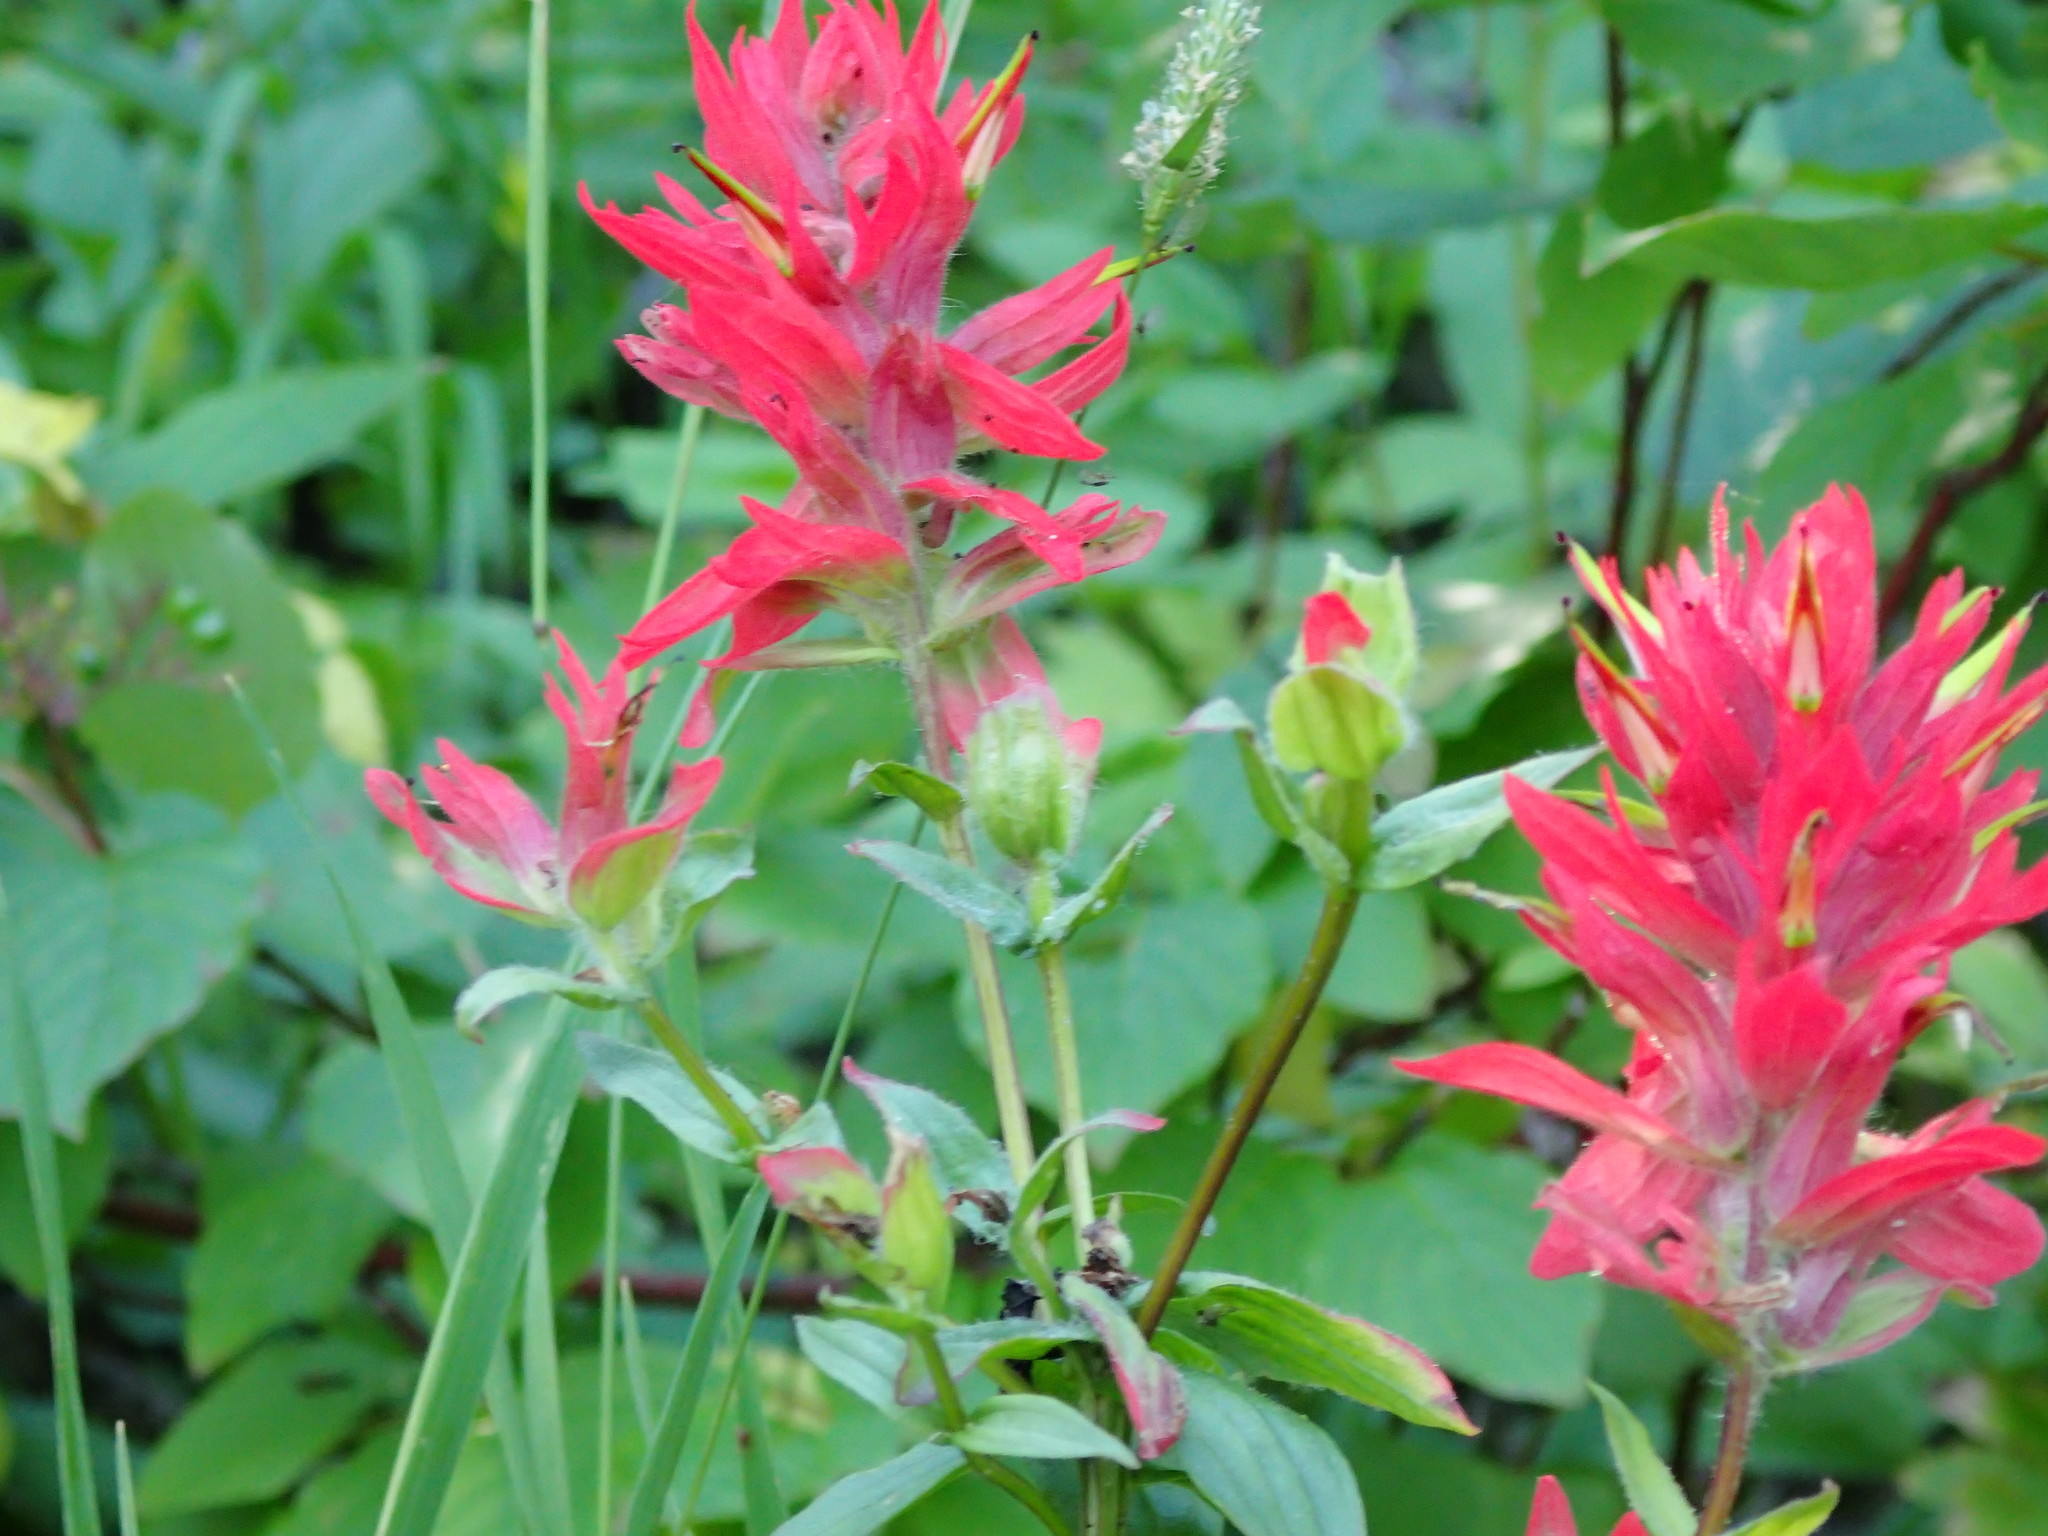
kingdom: Plantae
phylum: Tracheophyta
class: Magnoliopsida
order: Lamiales
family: Orobanchaceae
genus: Castilleja
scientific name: Castilleja miniata
